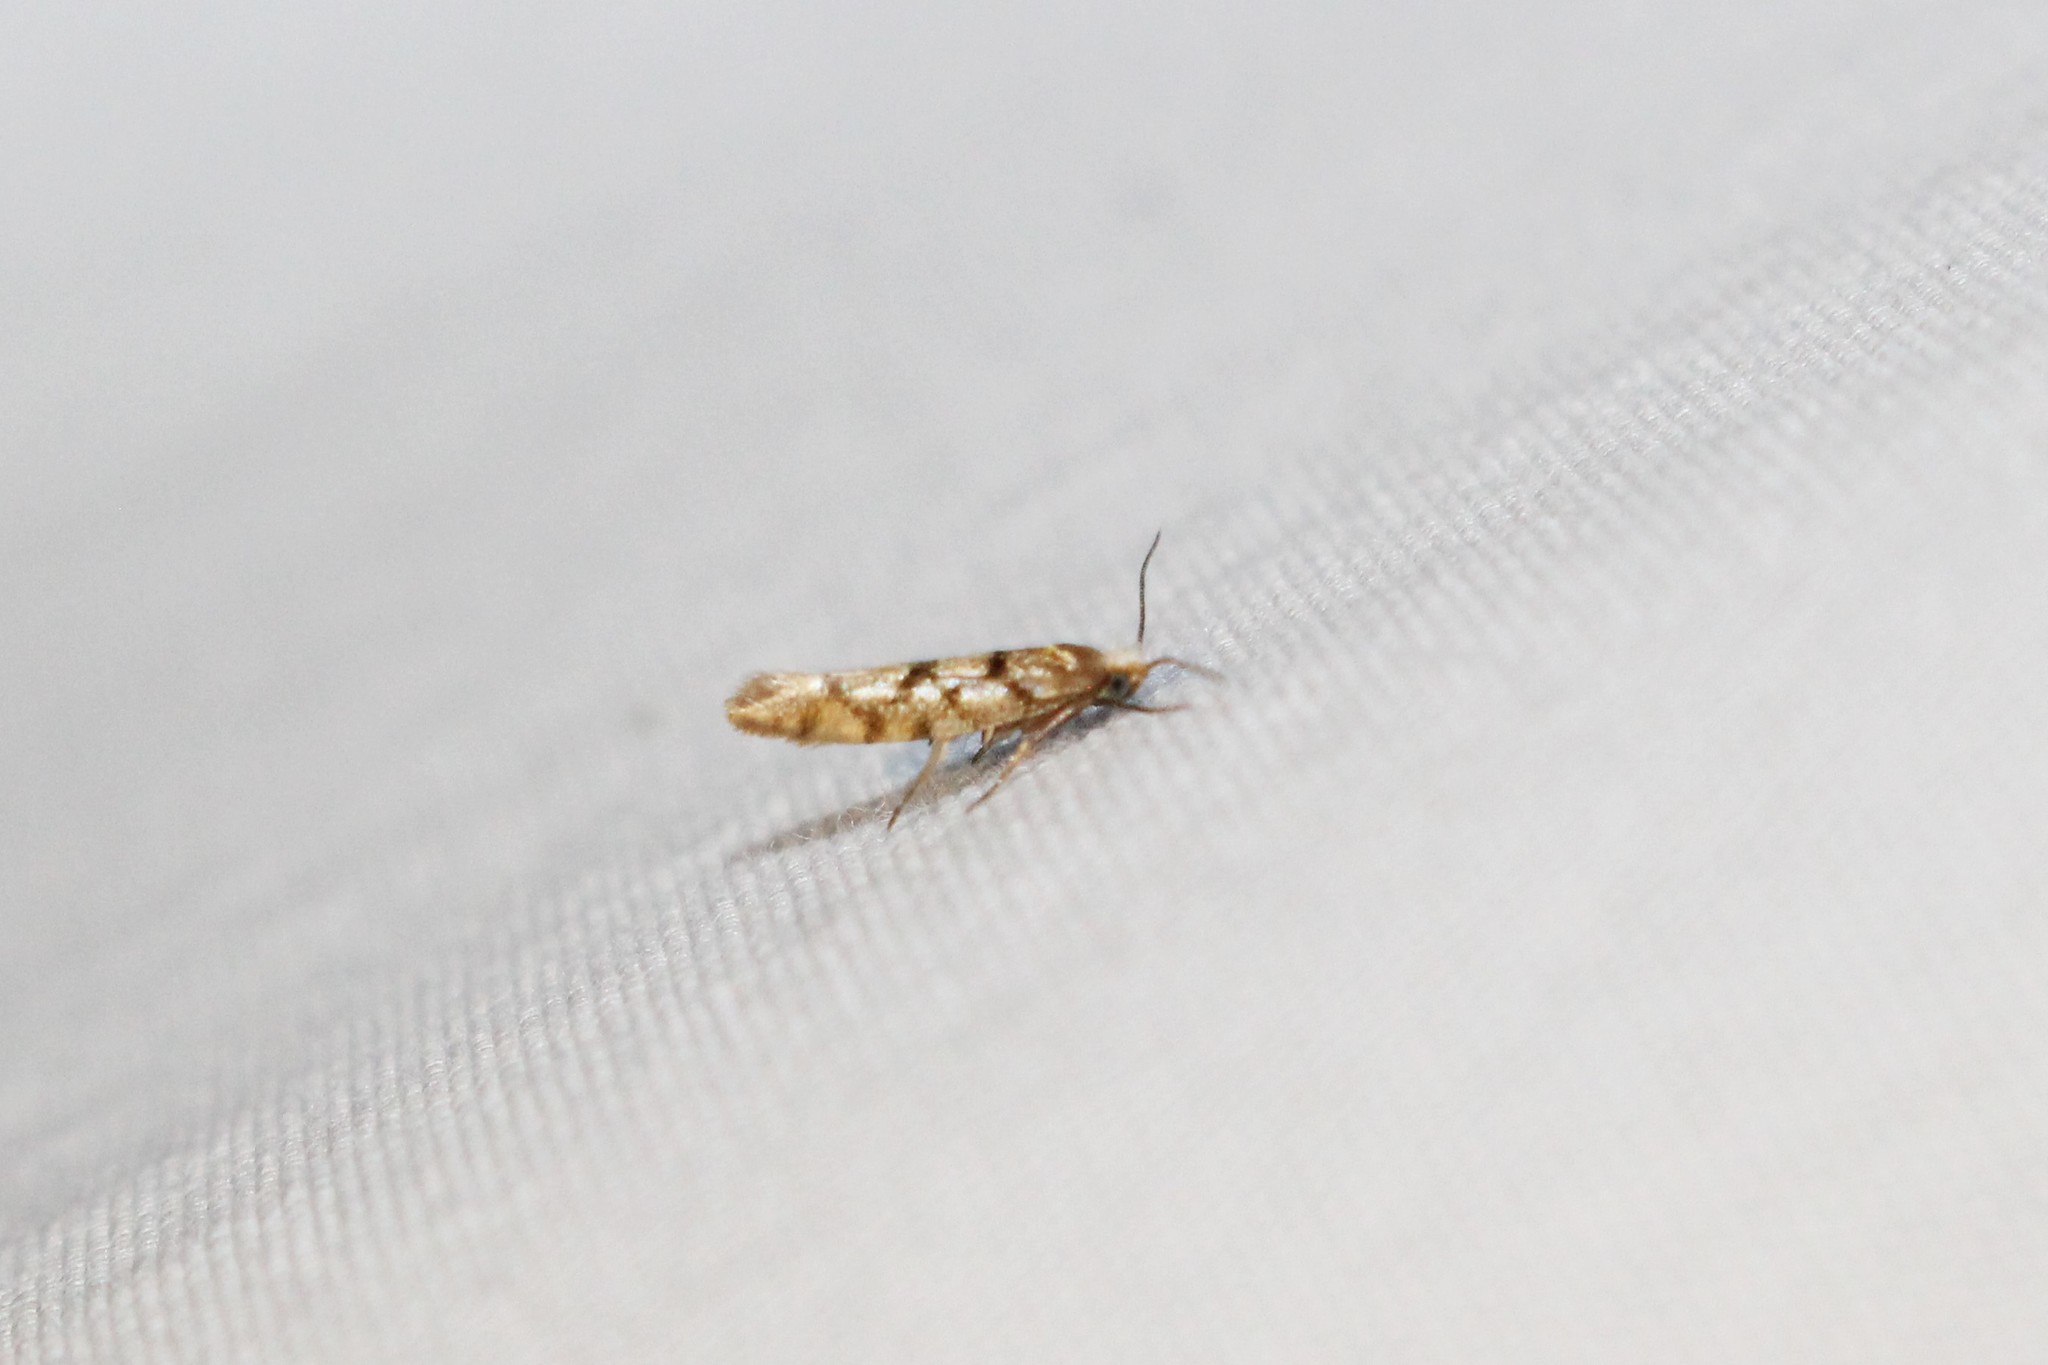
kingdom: Animalia
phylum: Arthropoda
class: Insecta
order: Lepidoptera
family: Argyresthiidae
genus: Argyresthia
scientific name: Argyresthia alternatella
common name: Juniper seed moth
